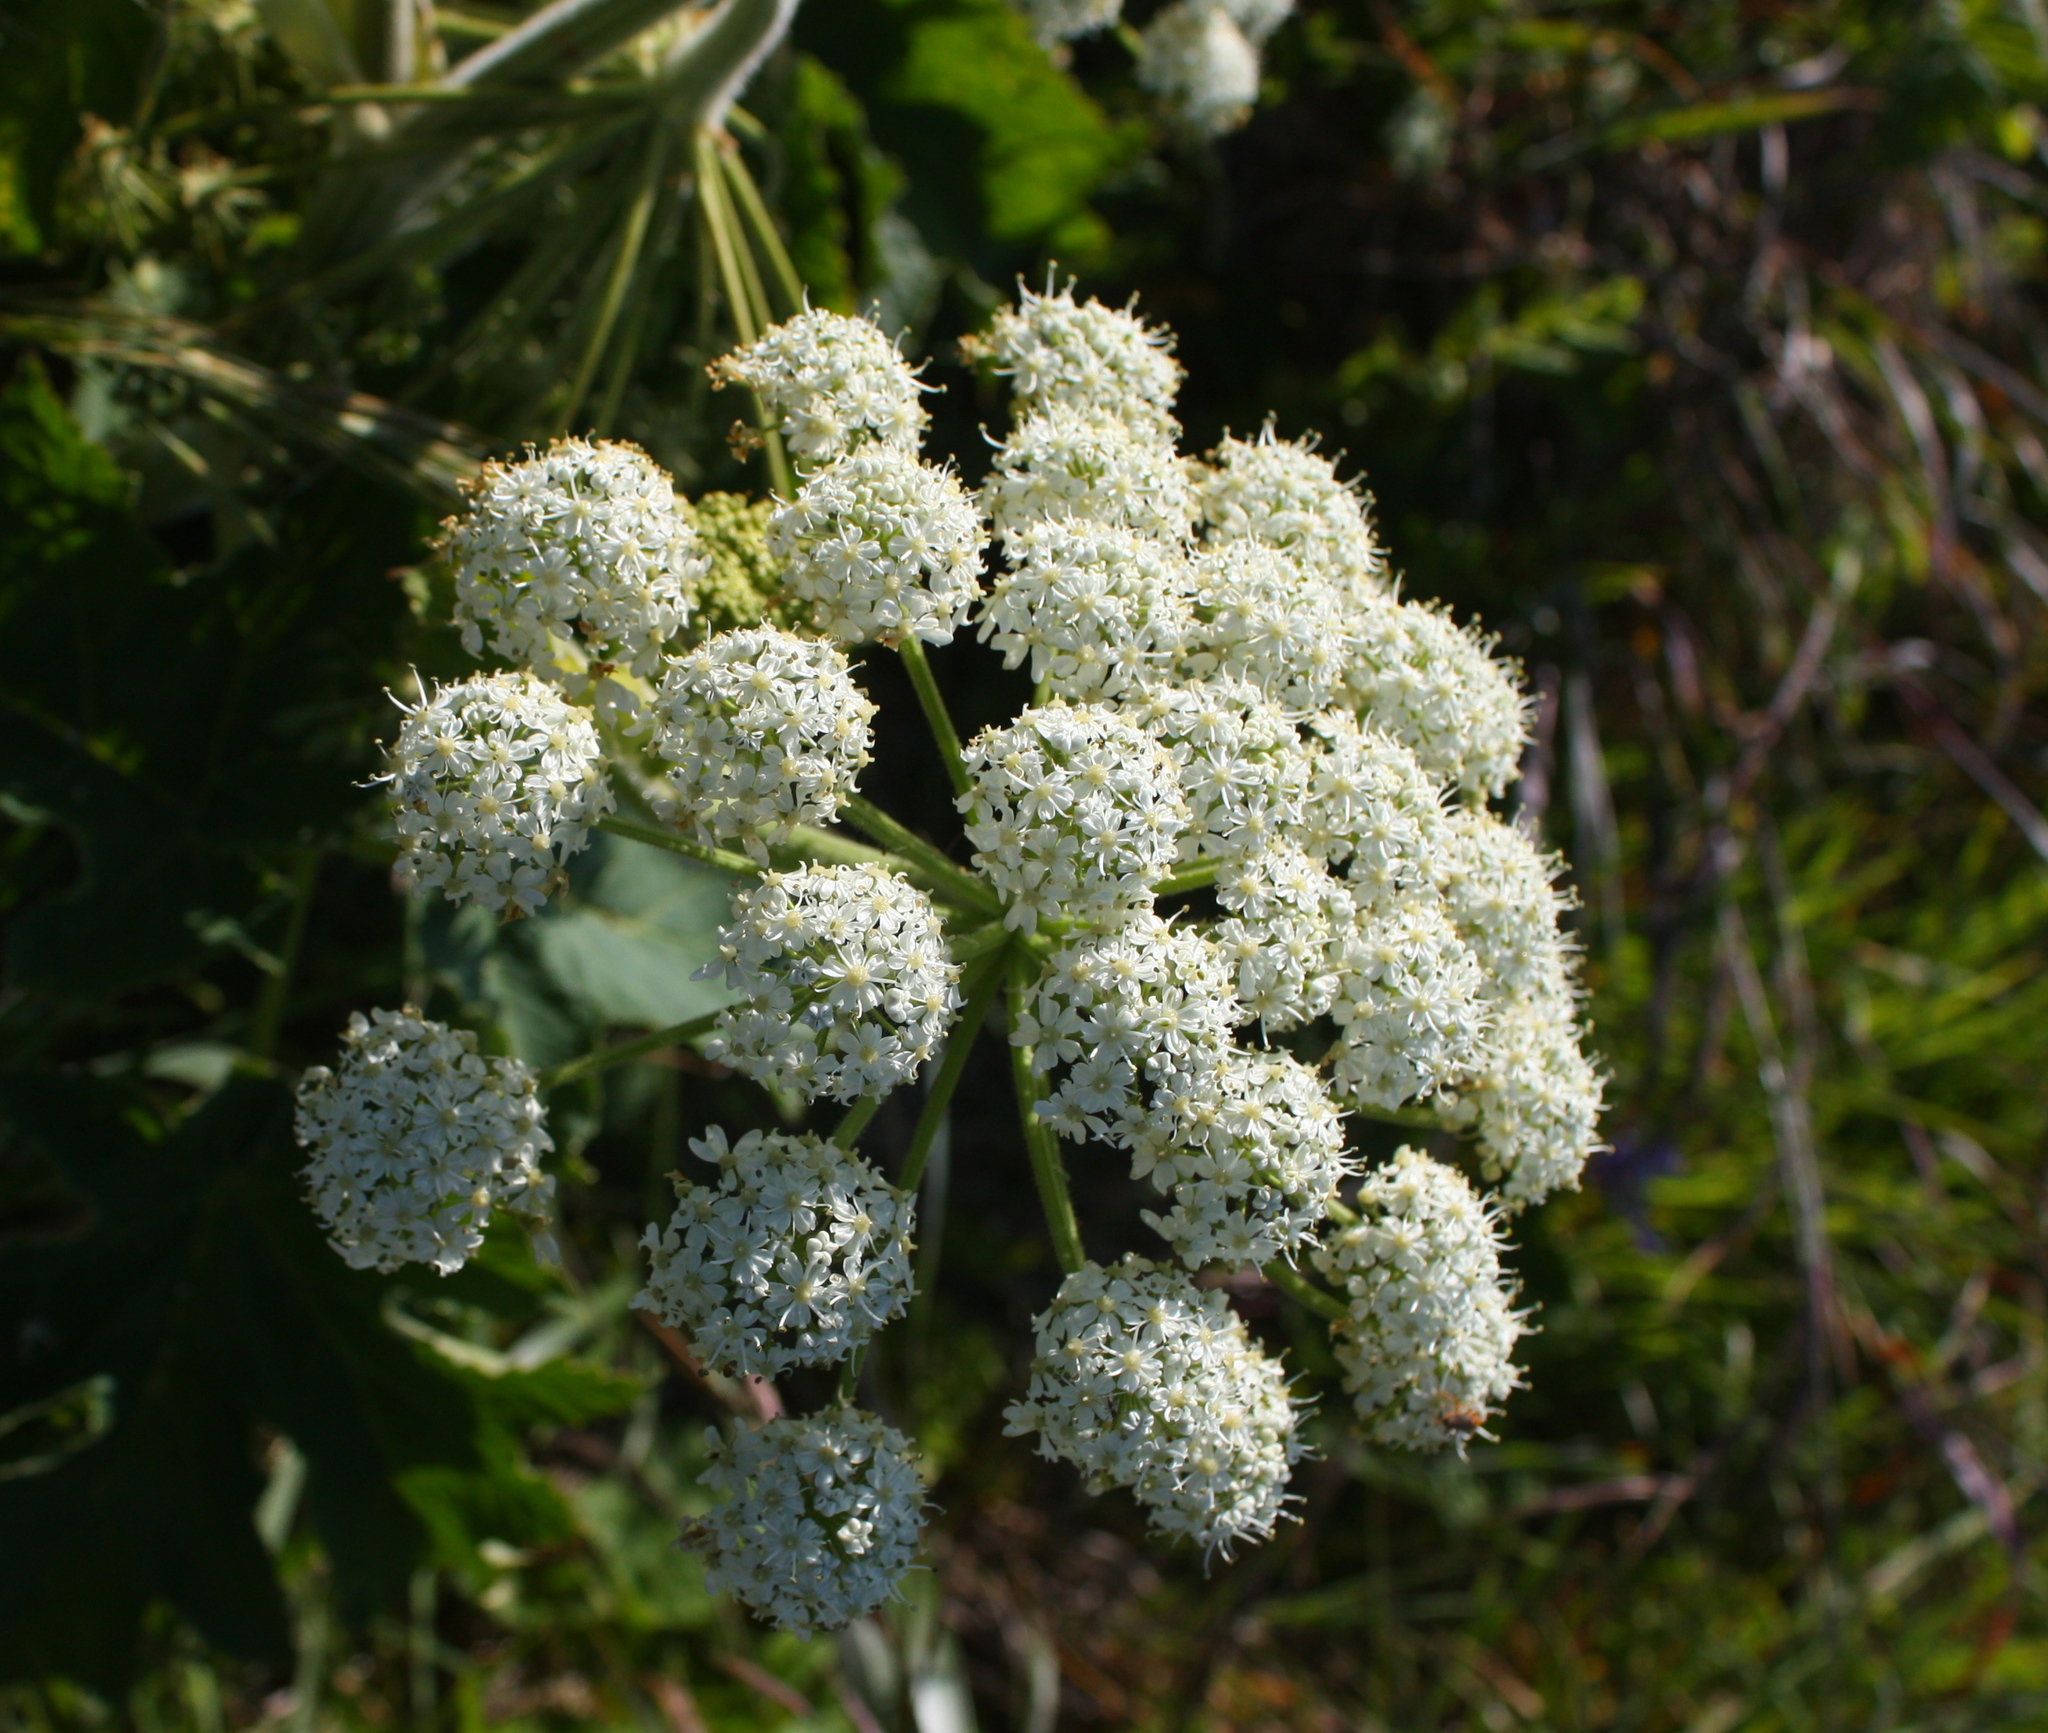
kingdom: Plantae
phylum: Tracheophyta
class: Magnoliopsida
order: Apiales
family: Apiaceae
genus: Heracleum
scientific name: Heracleum maximum
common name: American cow parsnip
